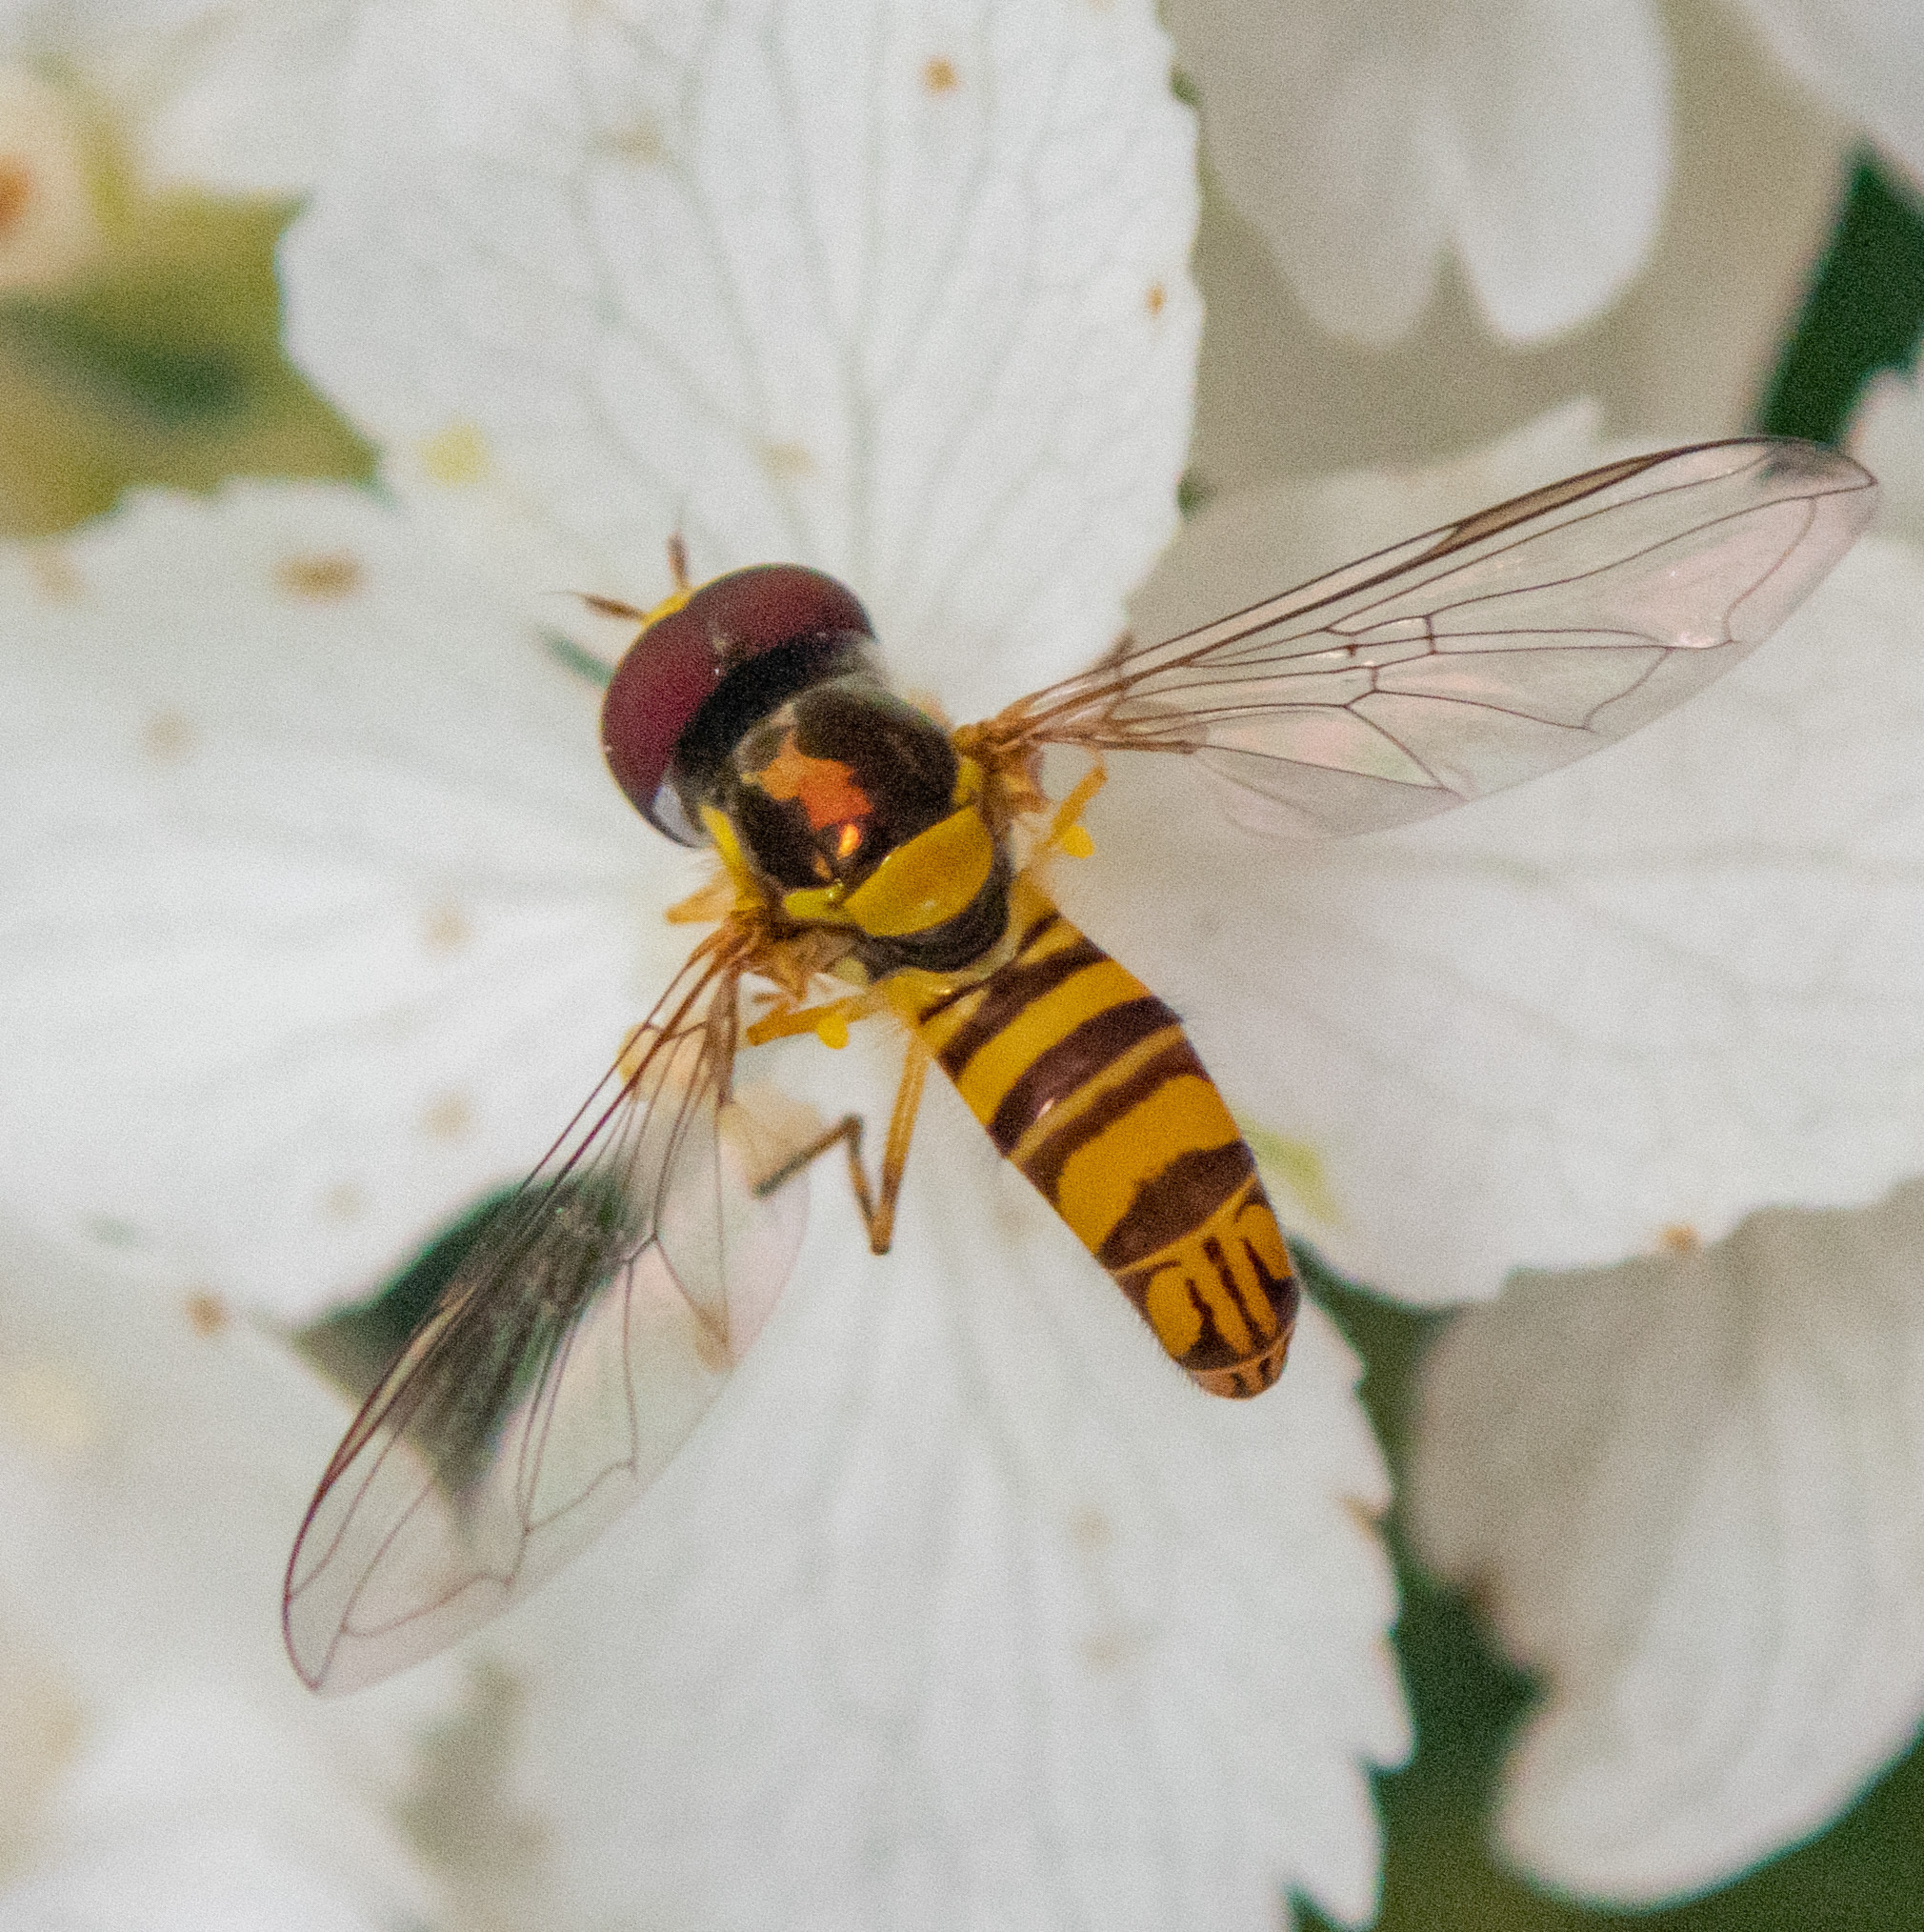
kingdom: Animalia
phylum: Arthropoda
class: Insecta
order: Diptera
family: Syrphidae
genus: Allograpta
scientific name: Allograpta obliqua
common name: Common oblique syrphid
